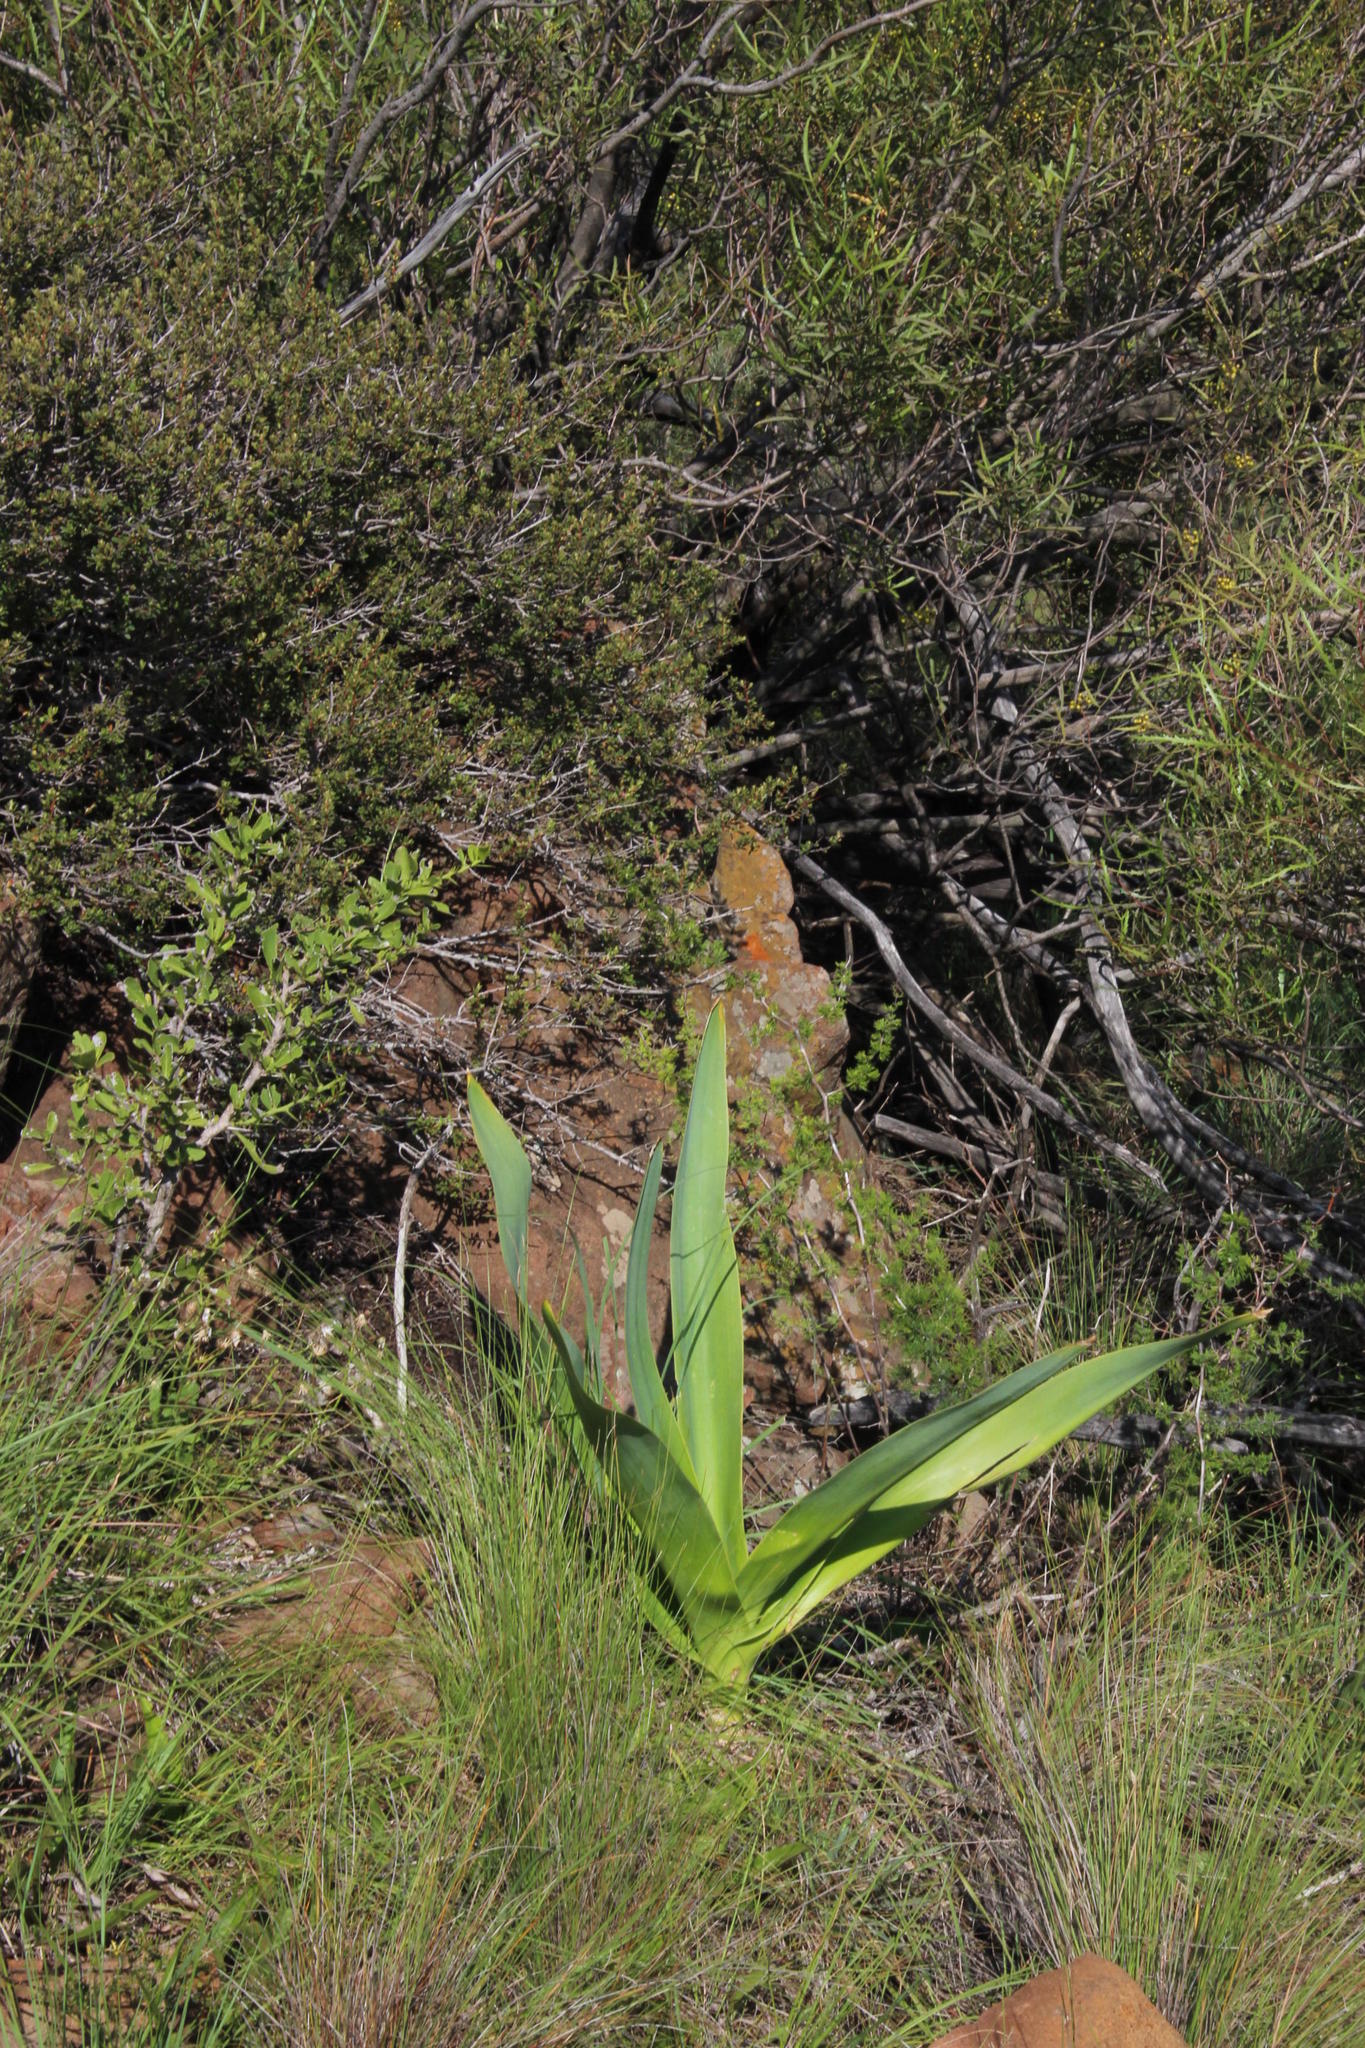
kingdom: Plantae
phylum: Tracheophyta
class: Liliopsida
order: Asparagales
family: Asparagaceae
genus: Drimia
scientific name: Drimia capensis
